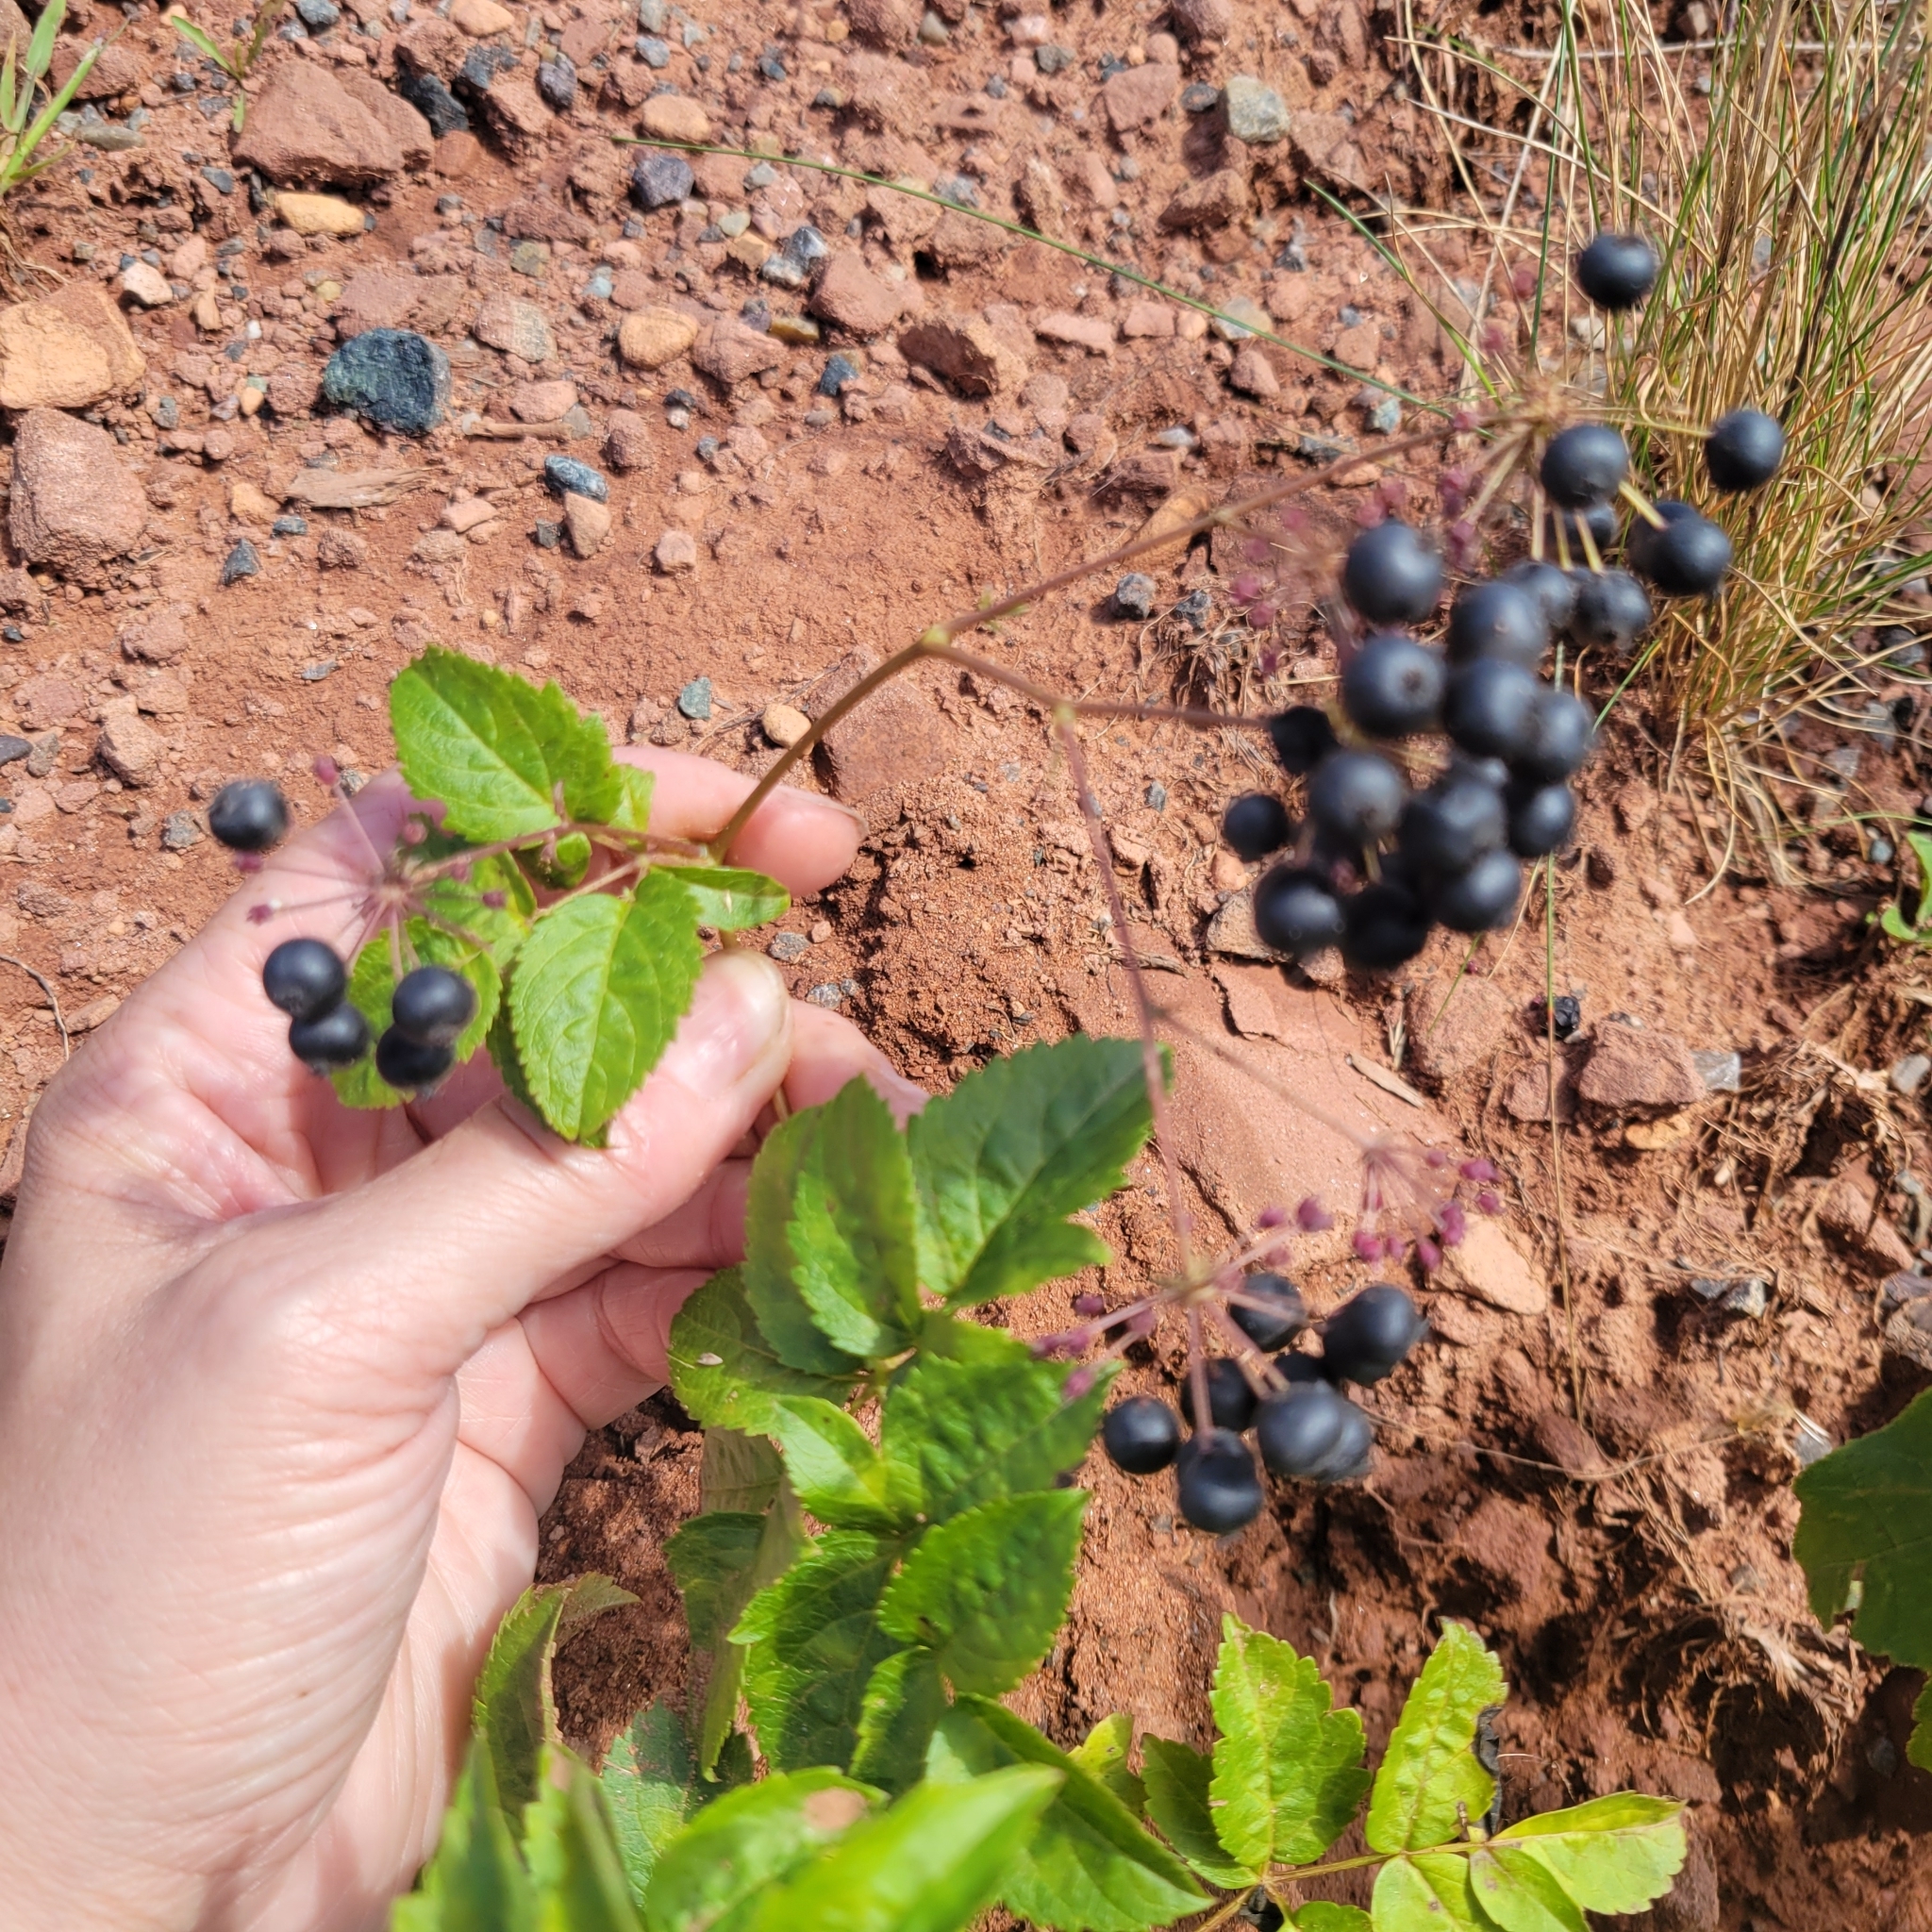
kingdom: Plantae
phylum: Tracheophyta
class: Magnoliopsida
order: Apiales
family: Araliaceae
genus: Aralia
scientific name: Aralia hispida
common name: Bristly sarsaparilla
